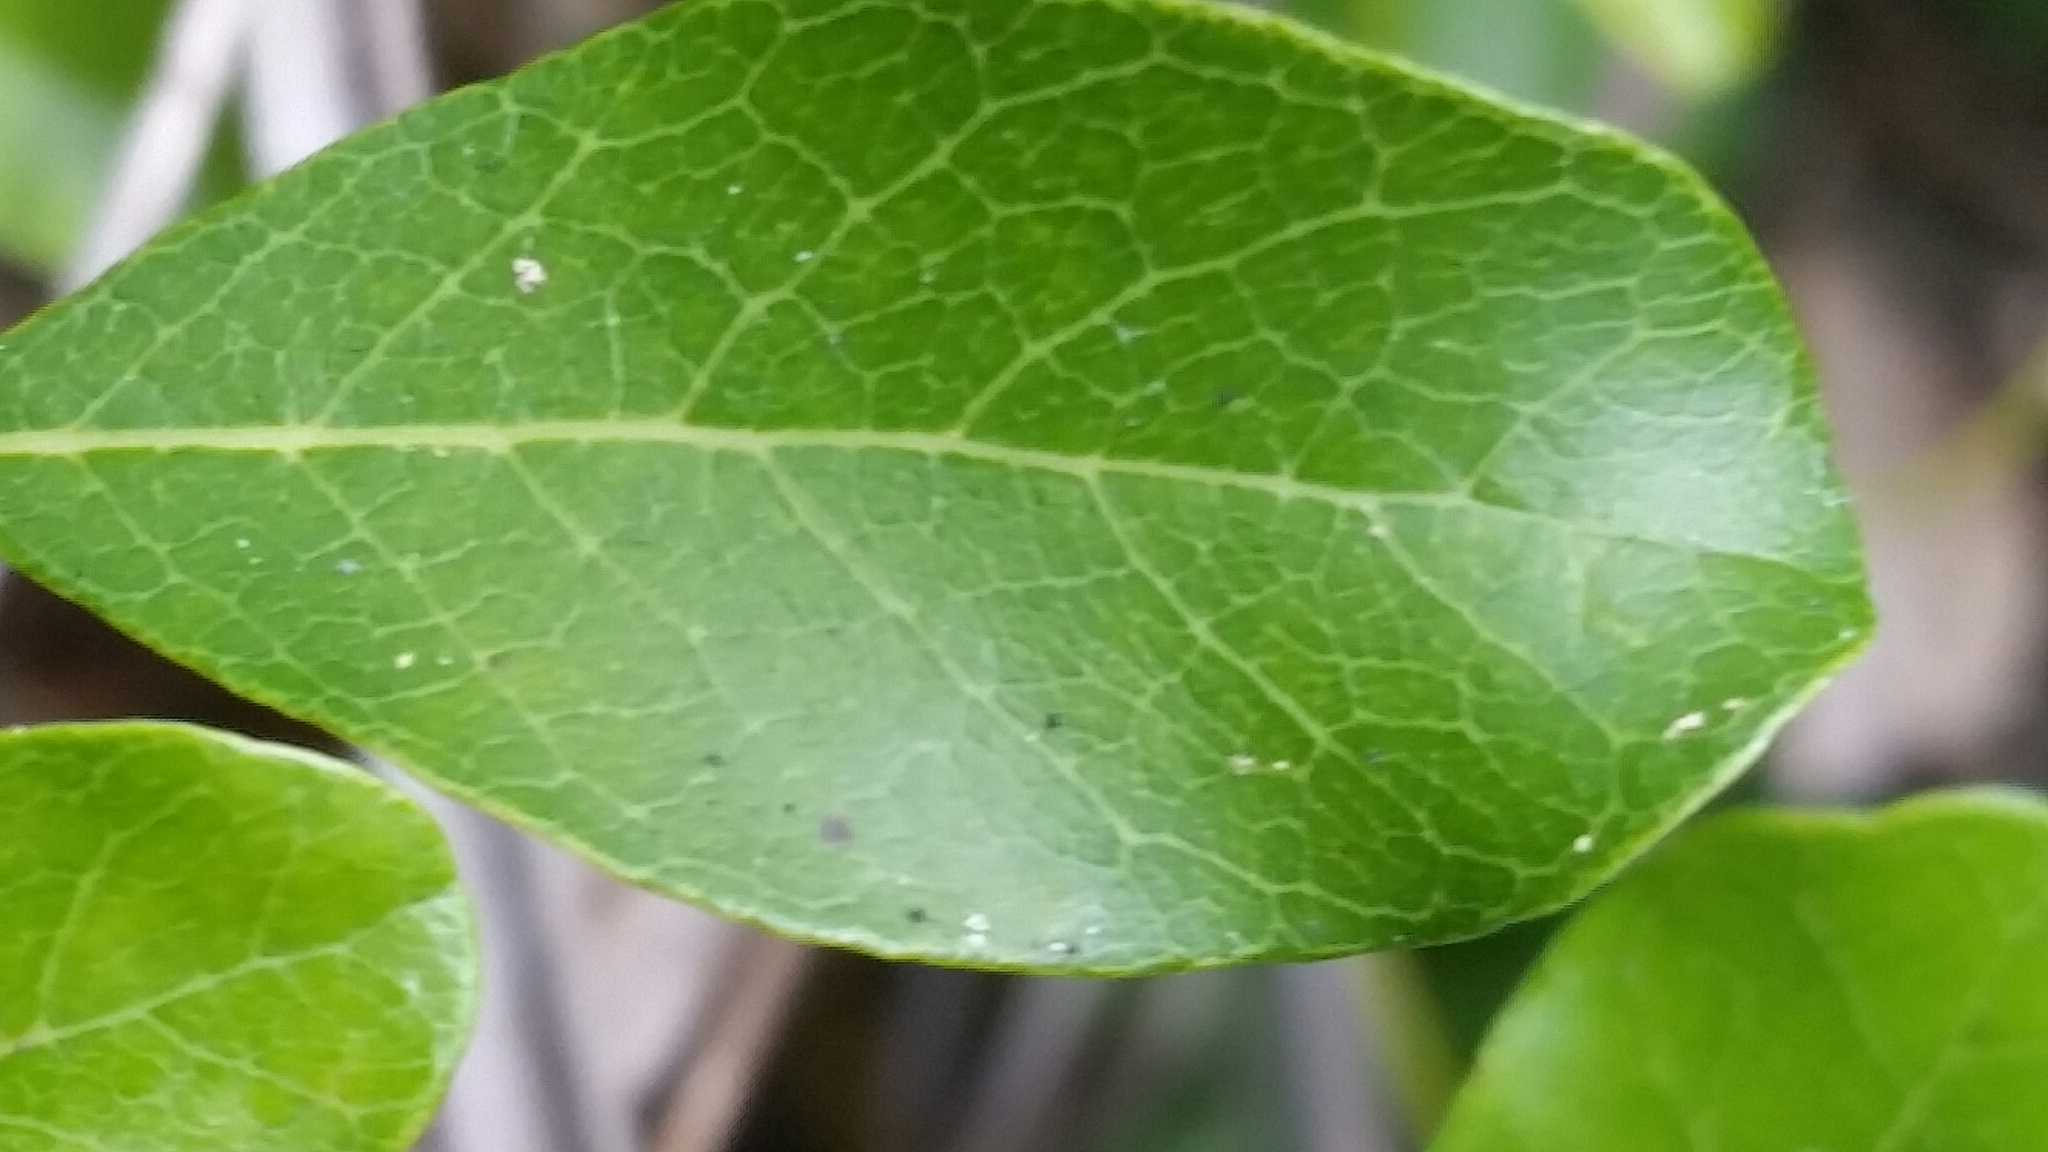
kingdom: Plantae
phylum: Tracheophyta
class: Magnoliopsida
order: Ericales
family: Sapotaceae
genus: Sideroxylon
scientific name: Sideroxylon reclinatum
